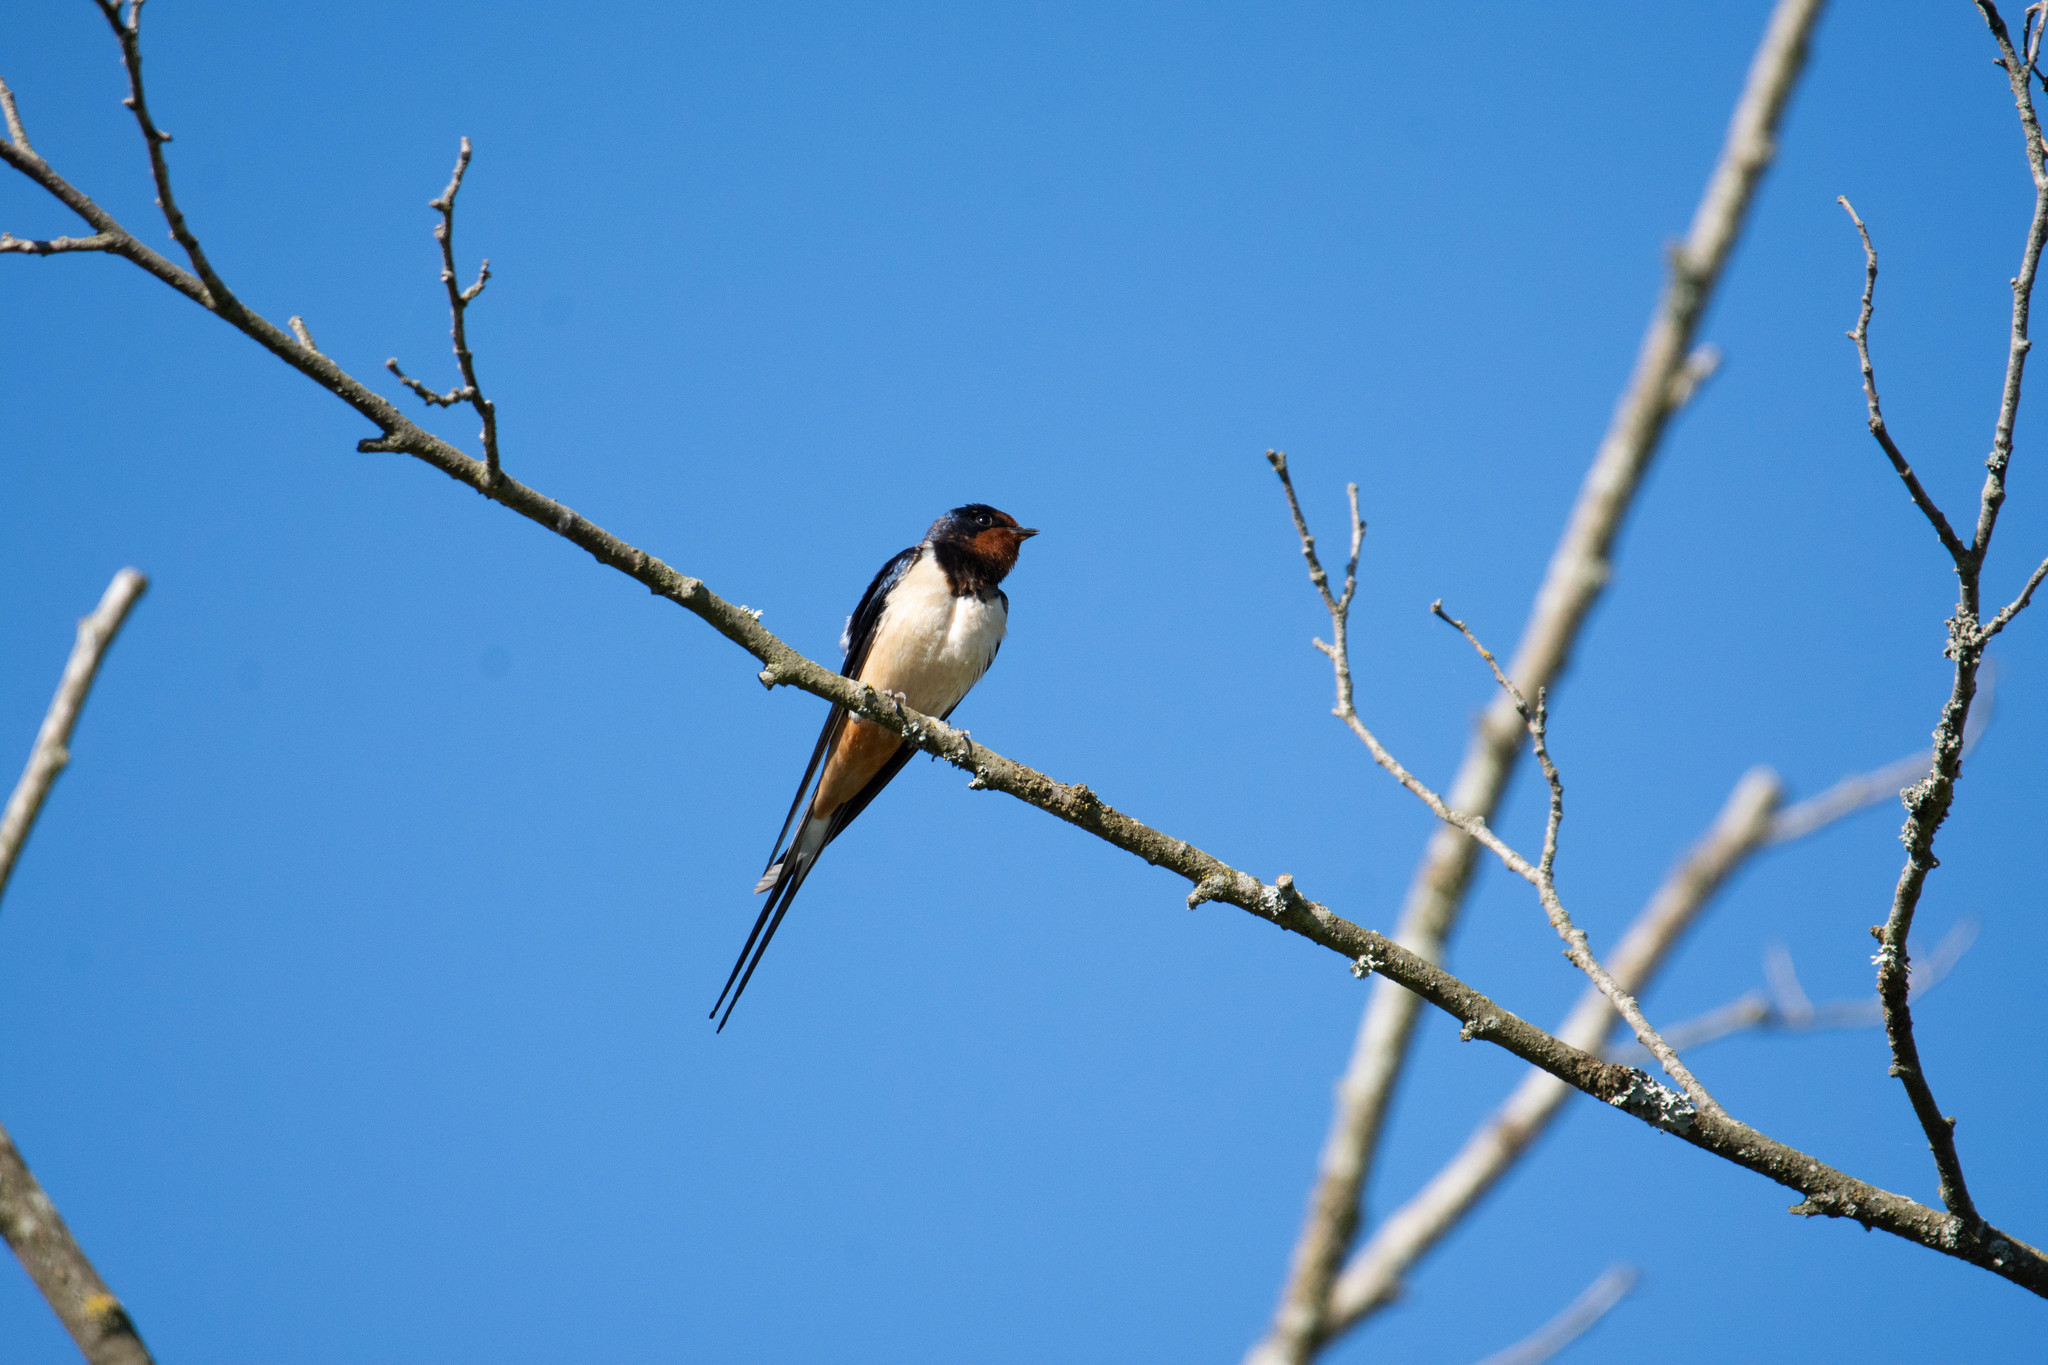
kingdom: Animalia
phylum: Chordata
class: Aves
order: Passeriformes
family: Hirundinidae
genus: Hirundo
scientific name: Hirundo rustica
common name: Barn swallow
